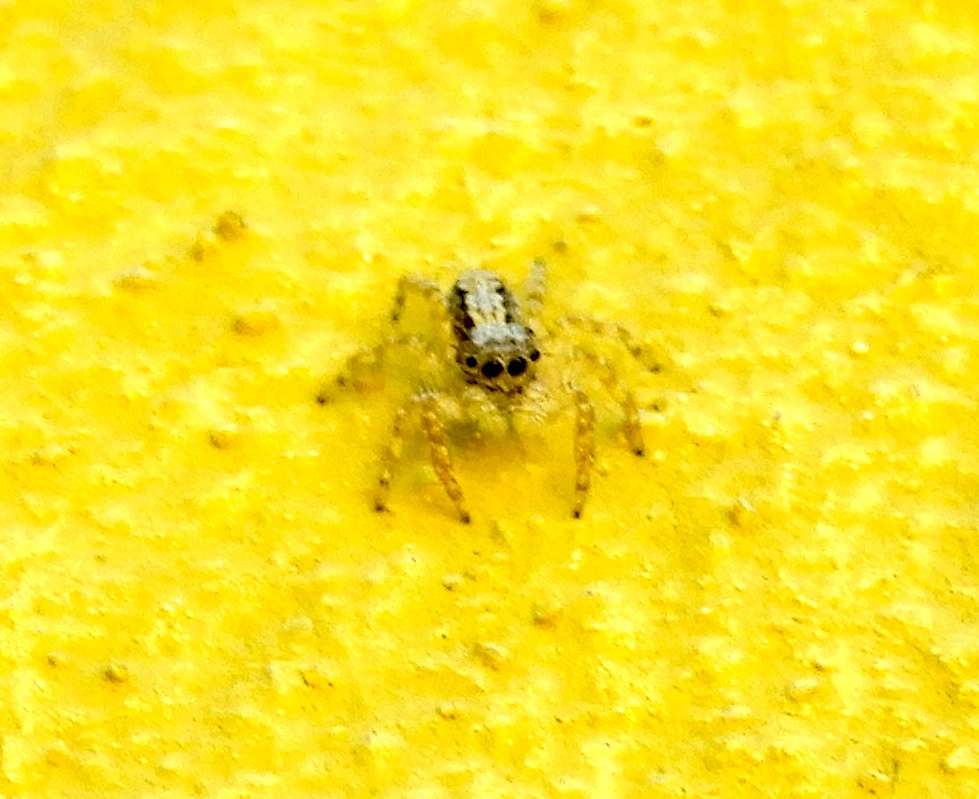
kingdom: Animalia
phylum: Arthropoda
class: Arachnida
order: Araneae
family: Salticidae
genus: Balmaceda
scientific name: Balmaceda
